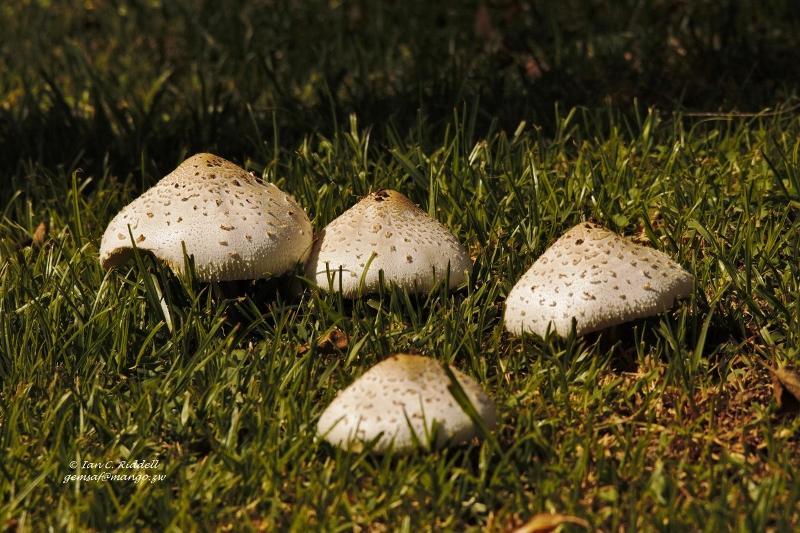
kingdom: Fungi
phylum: Basidiomycota
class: Agaricomycetes
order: Agaricales
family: Agaricaceae
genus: Chlorophyllum
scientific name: Chlorophyllum molybdites
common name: False parasol
